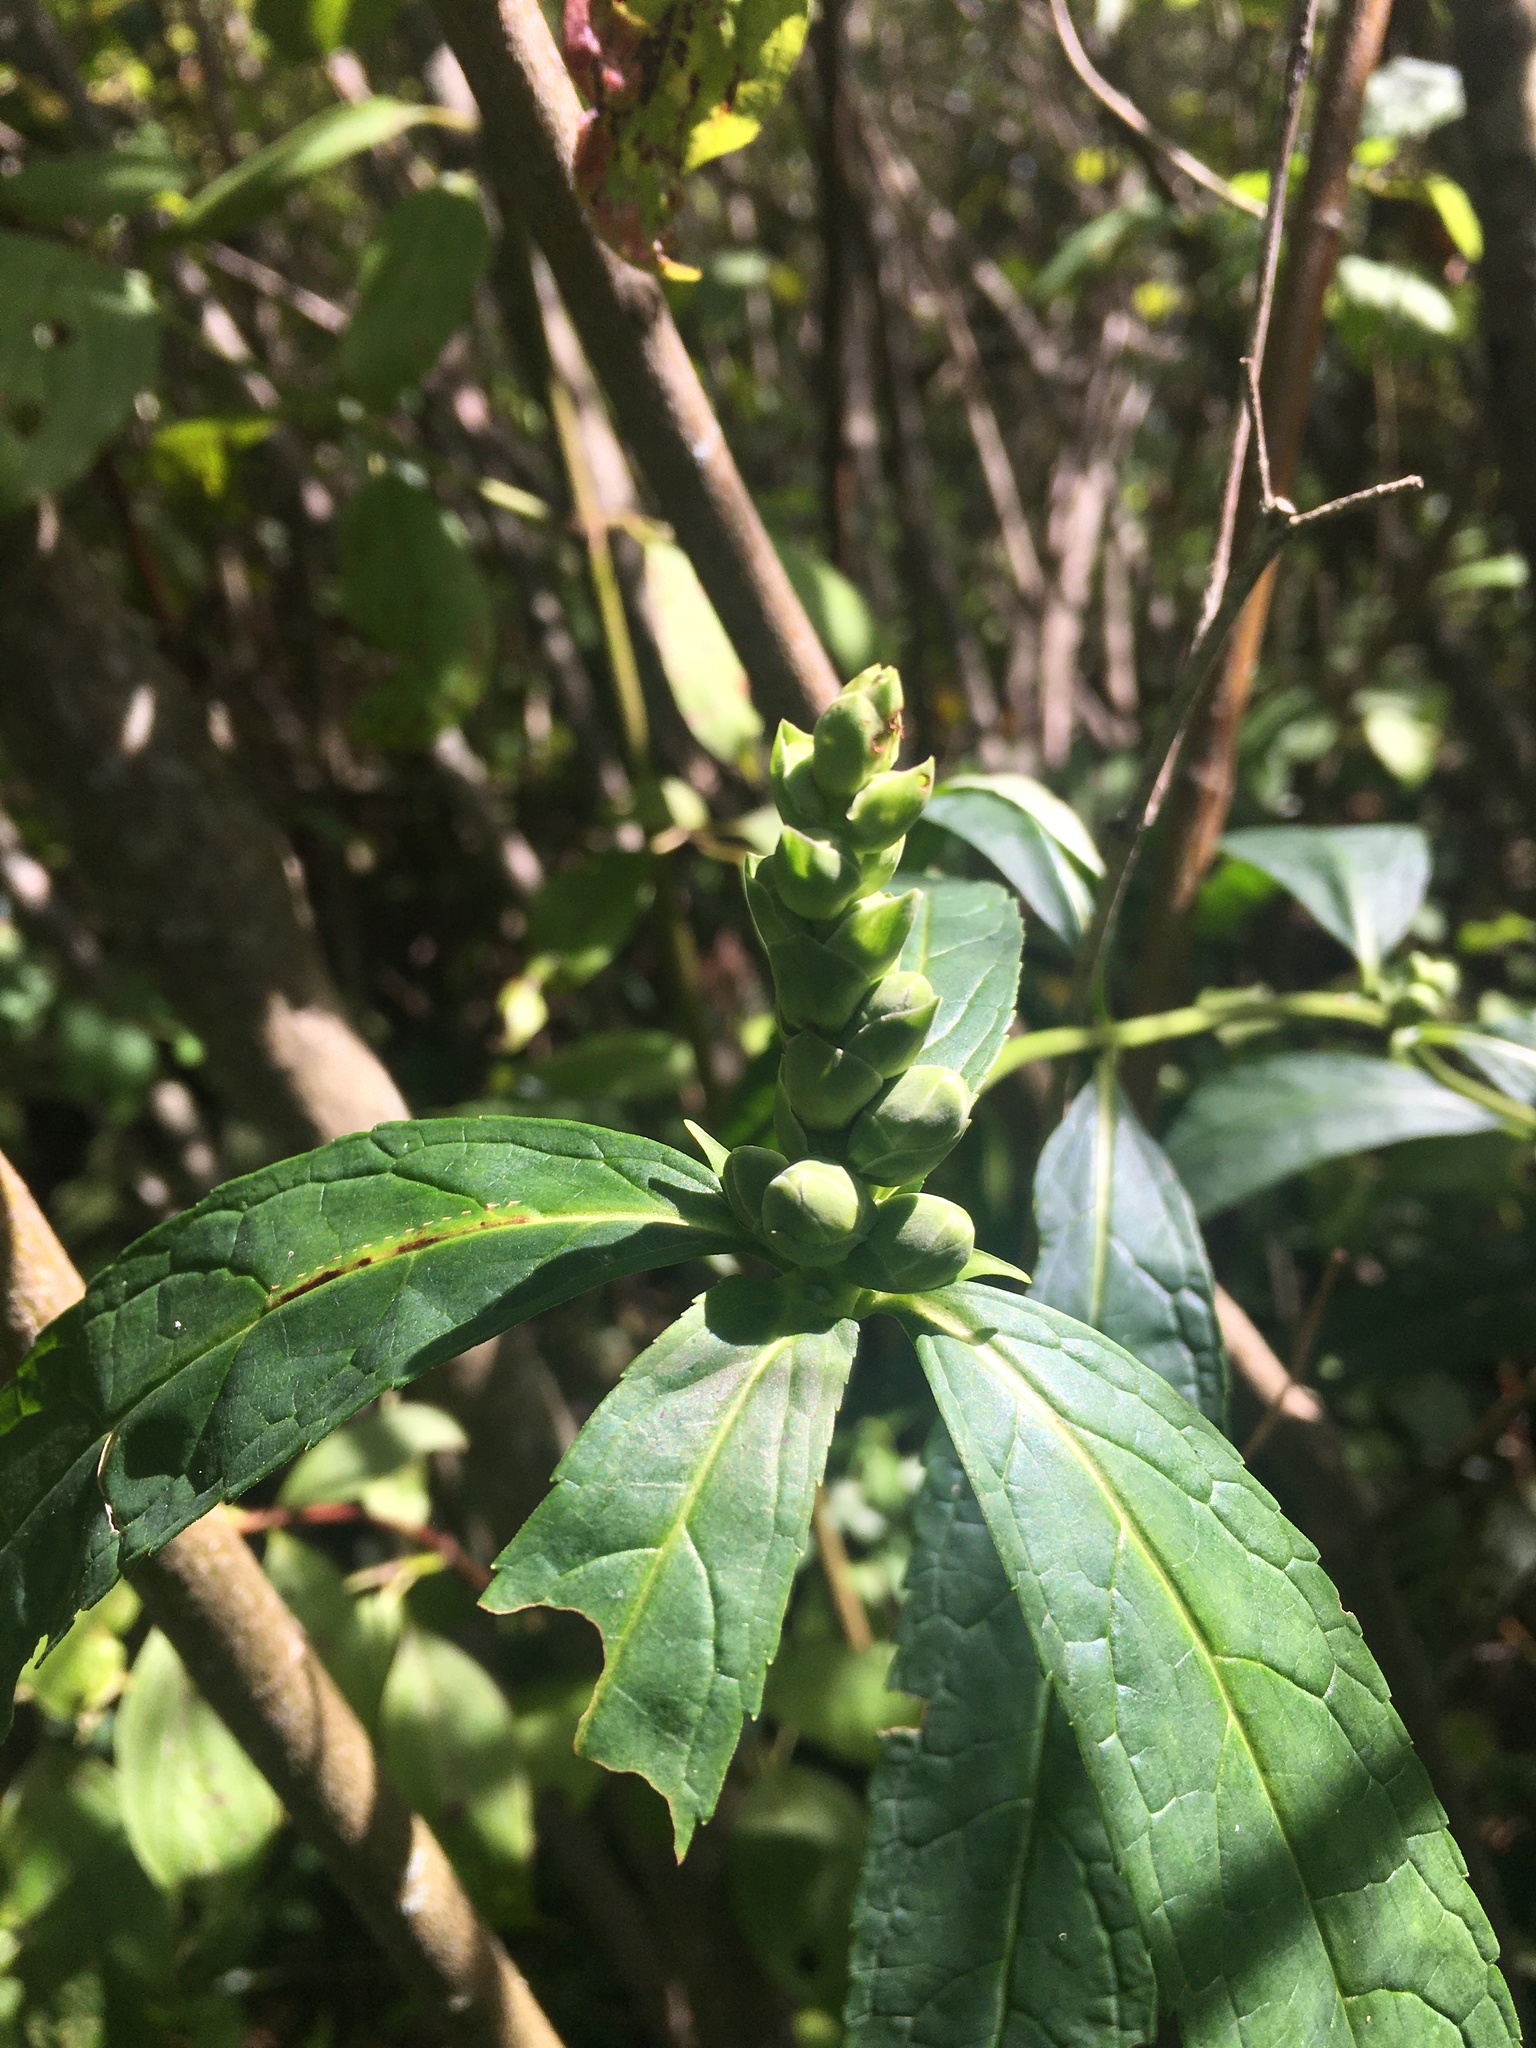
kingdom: Plantae
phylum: Tracheophyta
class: Magnoliopsida
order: Lamiales
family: Plantaginaceae
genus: Chelone
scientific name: Chelone glabra
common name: Snakehead
